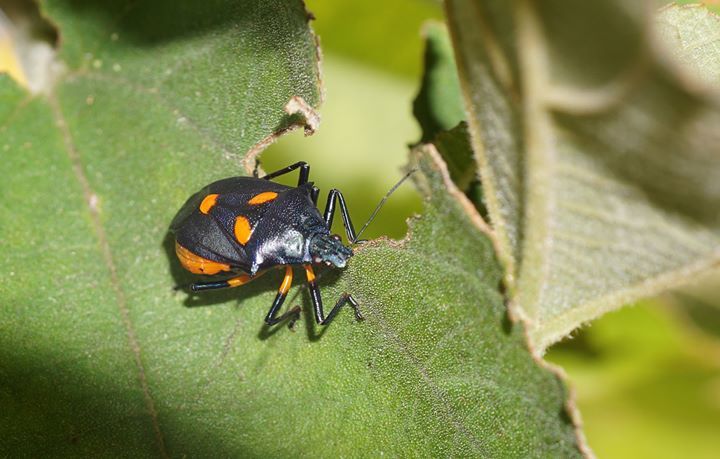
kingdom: Animalia
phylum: Arthropoda
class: Insecta
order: Hemiptera
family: Pentatomidae
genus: Euthyrhynchus
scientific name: Euthyrhynchus floridanus
